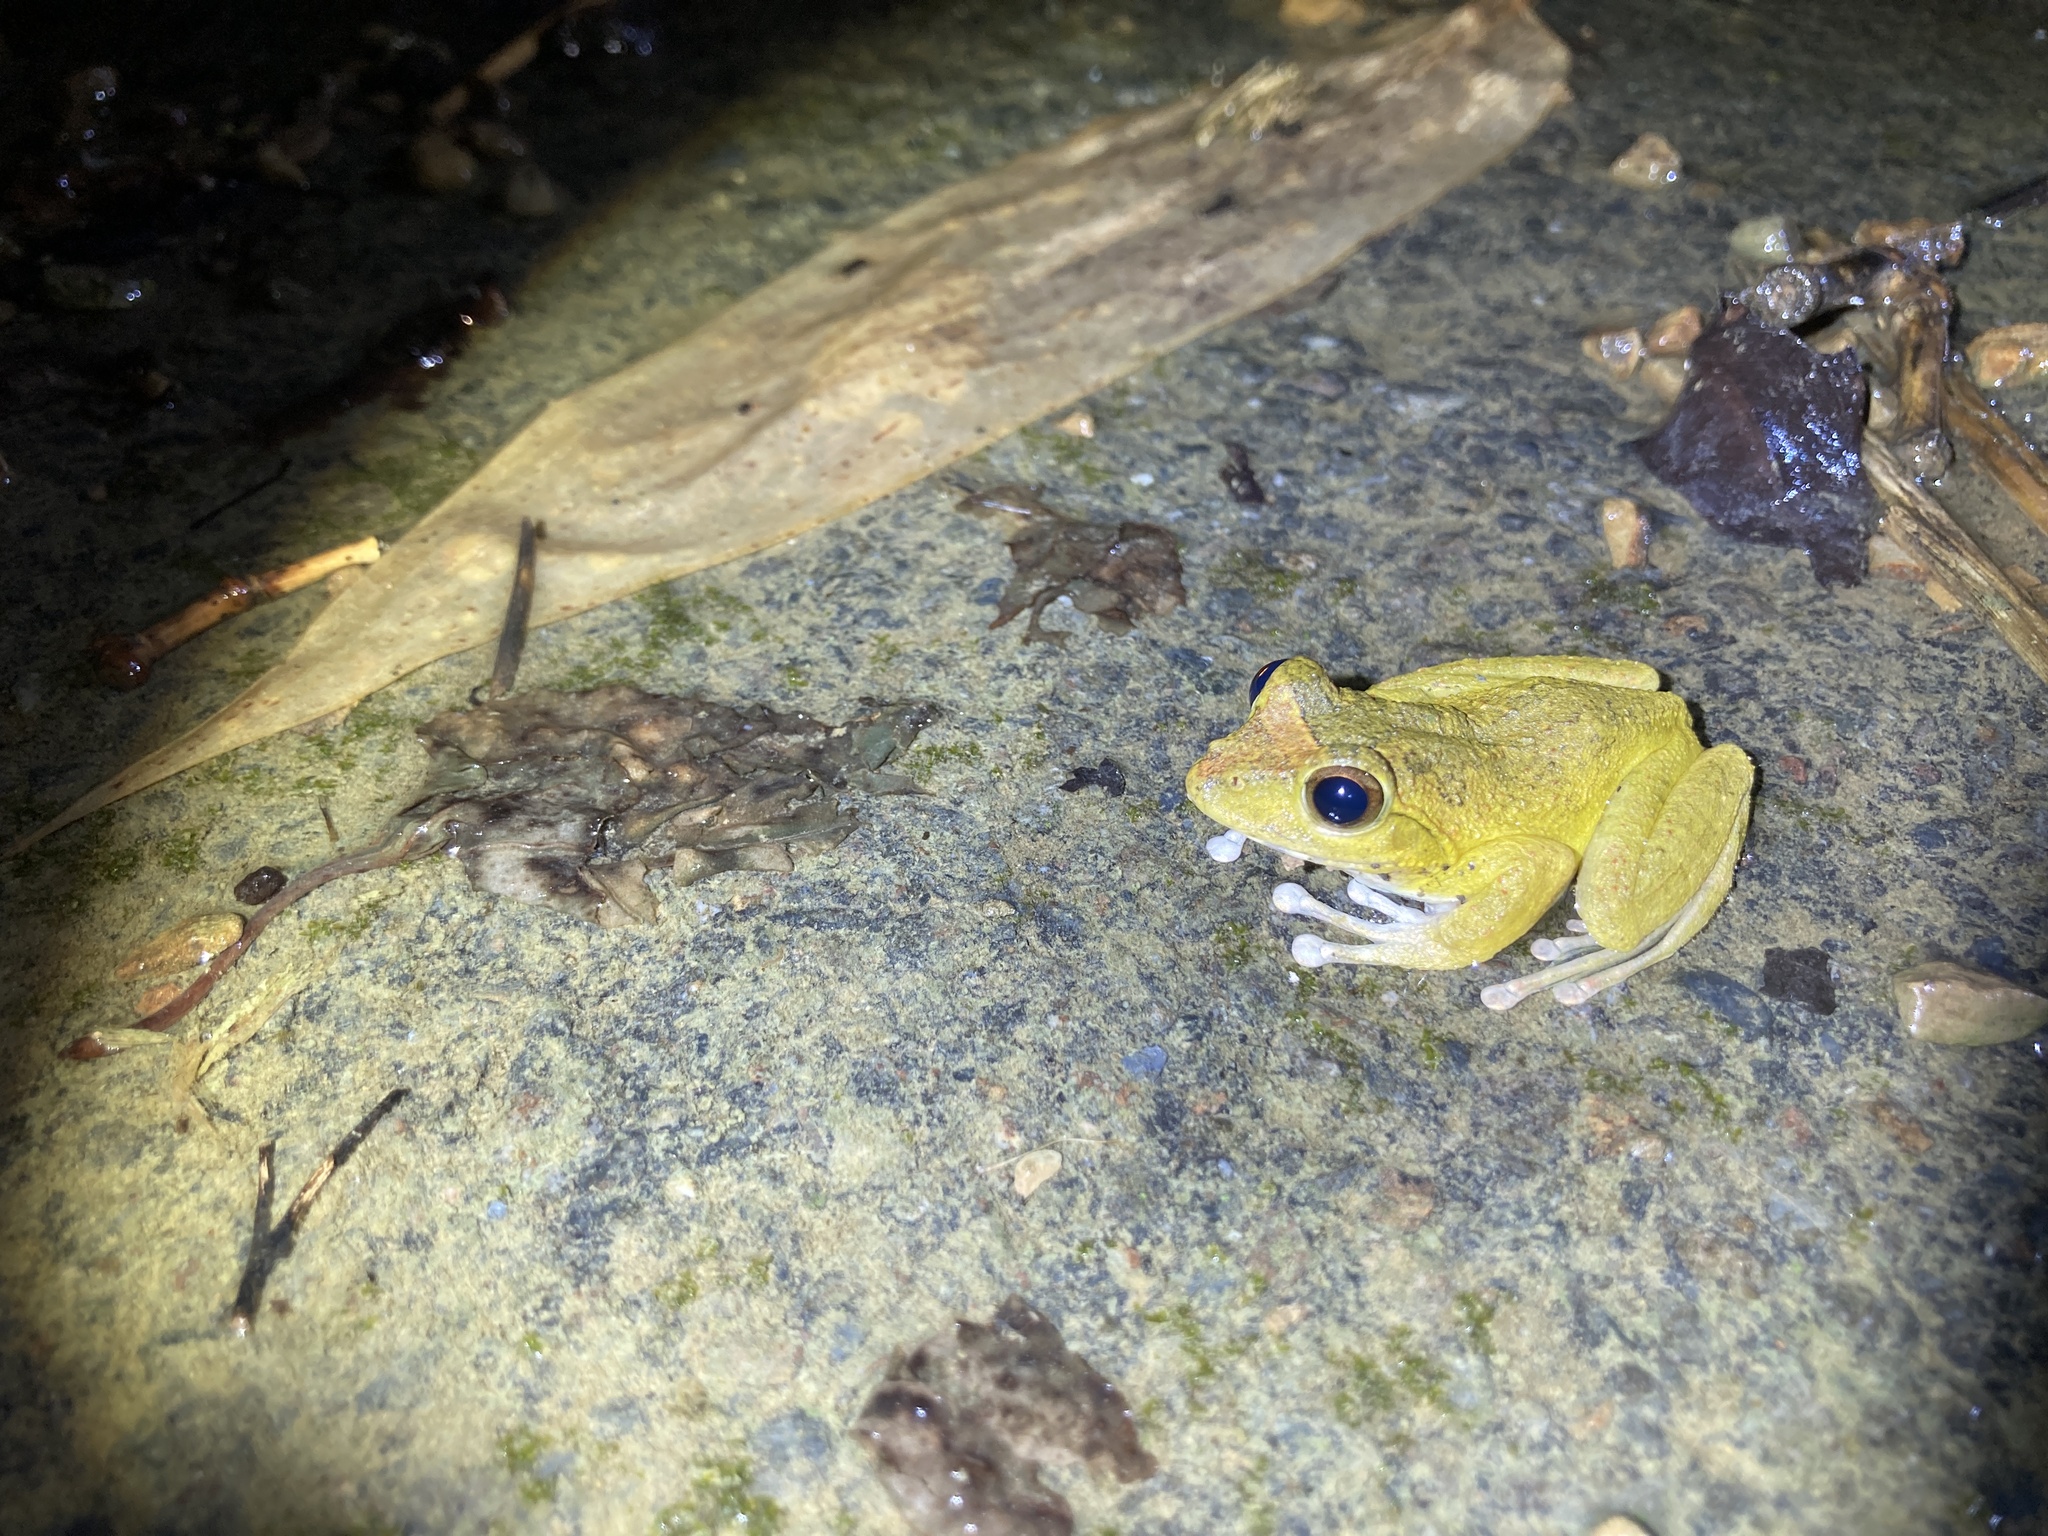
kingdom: Animalia
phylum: Chordata
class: Amphibia
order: Anura
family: Rhacophoridae
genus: Buergeria
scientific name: Buergeria robusta
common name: Brown treefrog
